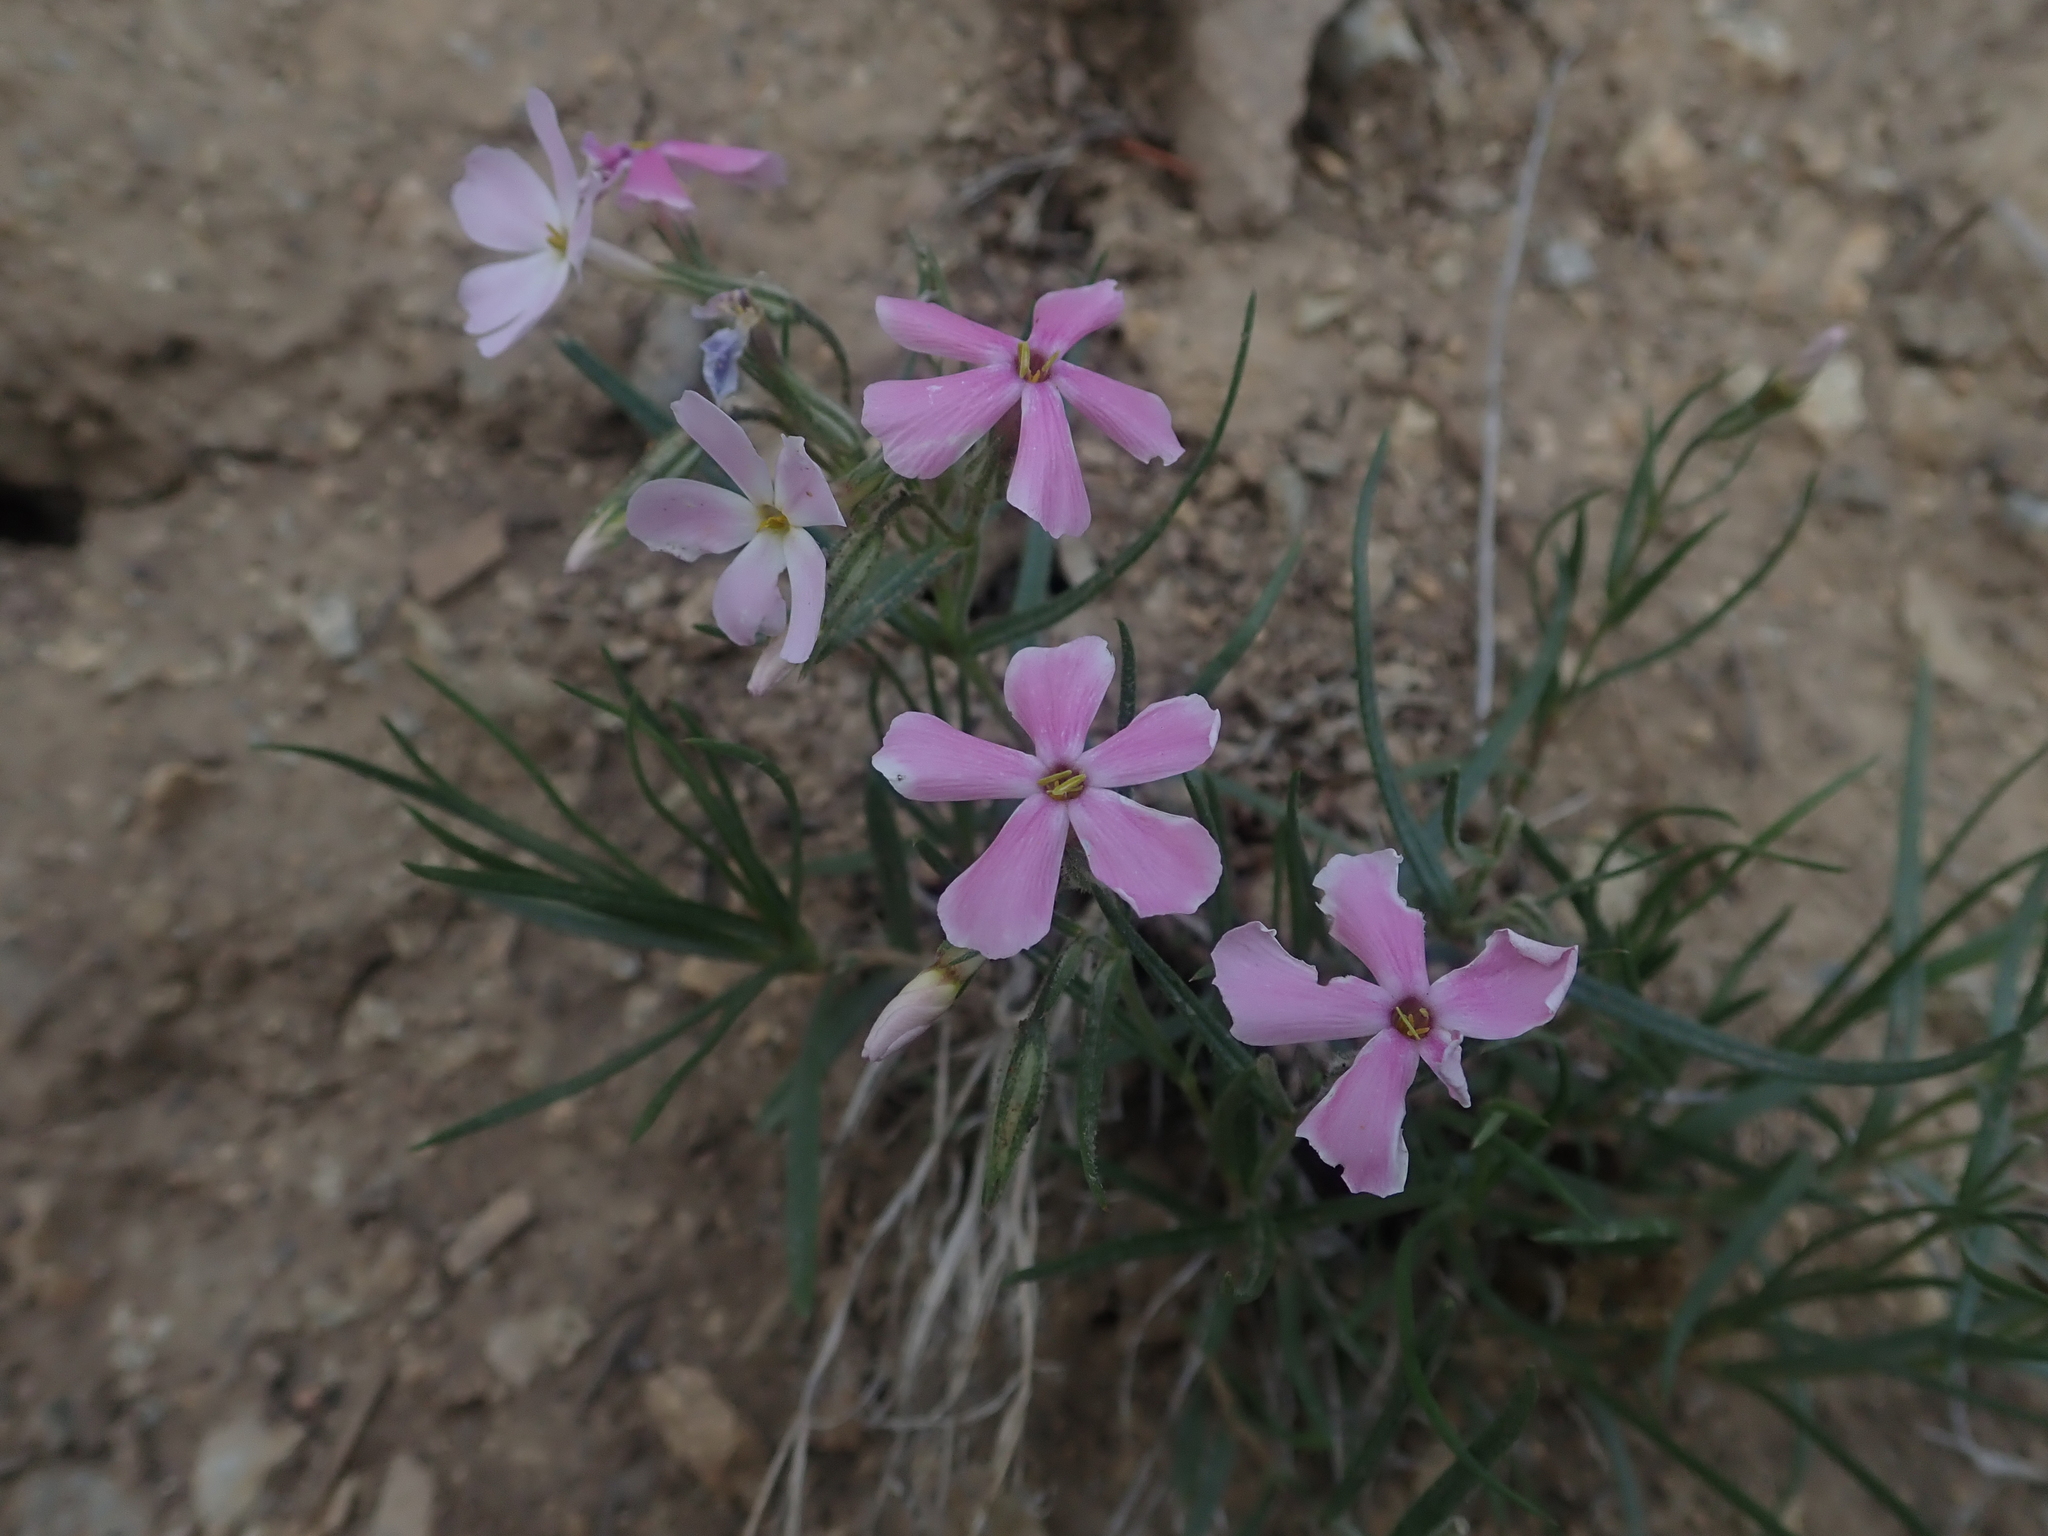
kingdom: Plantae
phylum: Tracheophyta
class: Magnoliopsida
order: Ericales
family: Polemoniaceae
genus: Phlox
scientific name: Phlox longifolia
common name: Longleaf phlox
